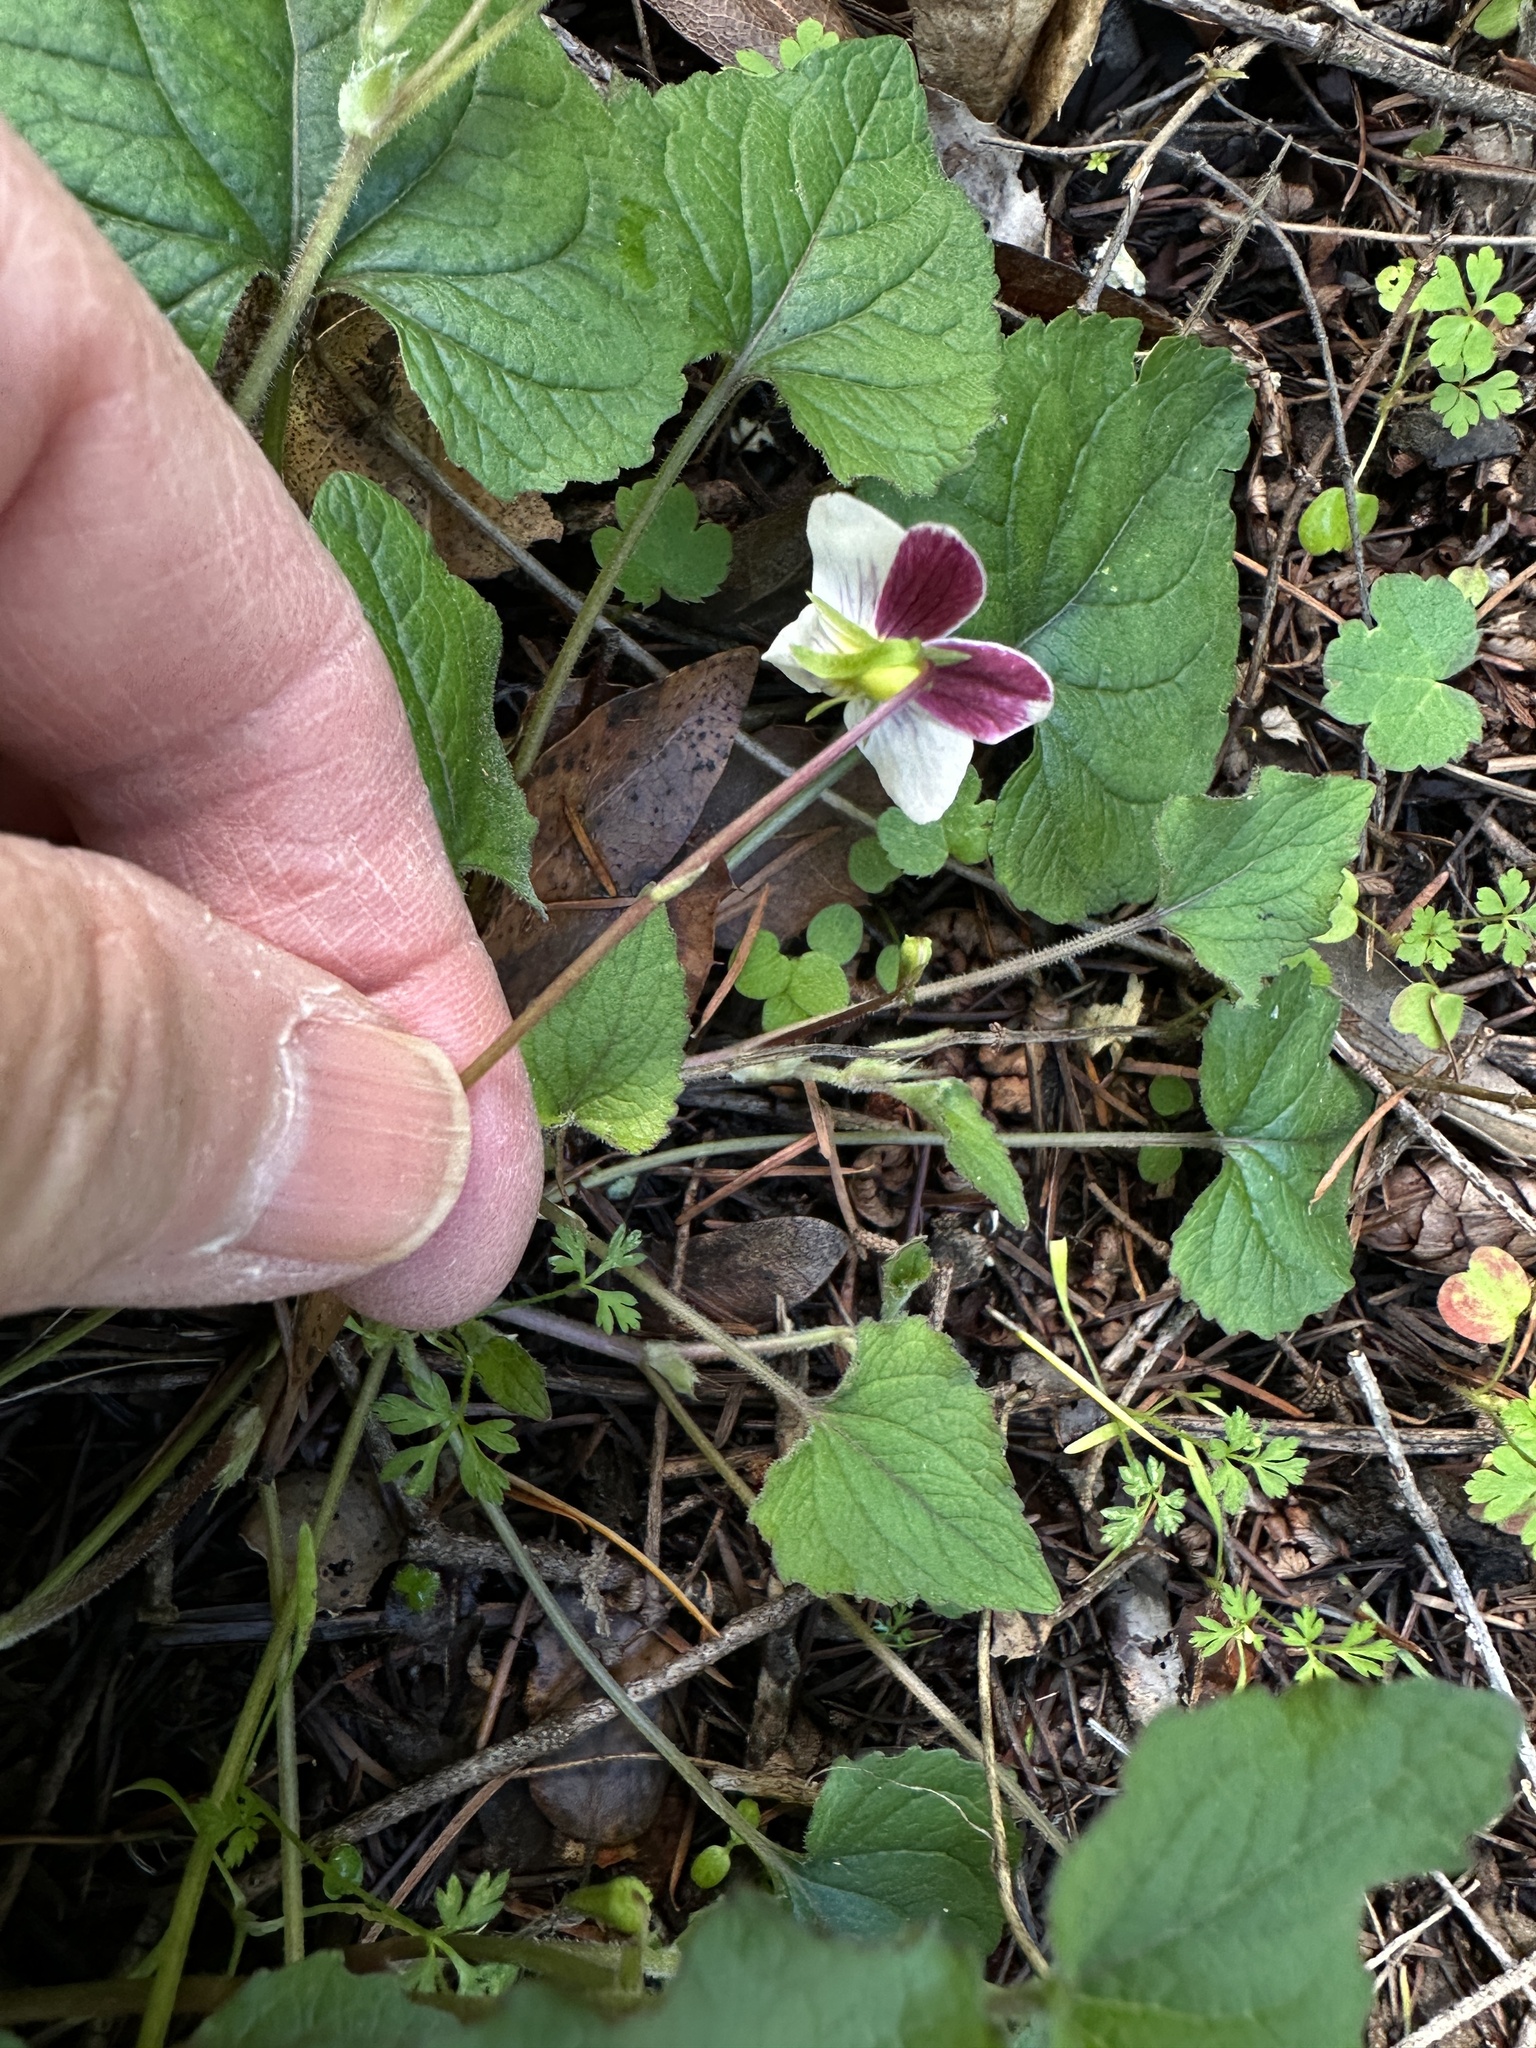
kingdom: Plantae
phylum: Tracheophyta
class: Magnoliopsida
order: Malpighiales
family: Violaceae
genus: Viola
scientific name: Viola ocellata
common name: Western heart's ease
